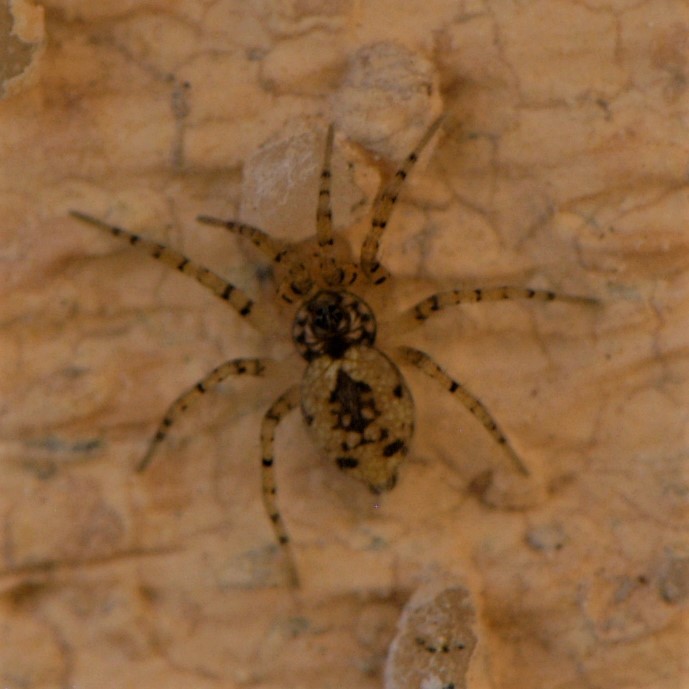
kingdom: Animalia
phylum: Arthropoda
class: Arachnida
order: Araneae
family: Oecobiidae
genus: Oecobius
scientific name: Oecobius
